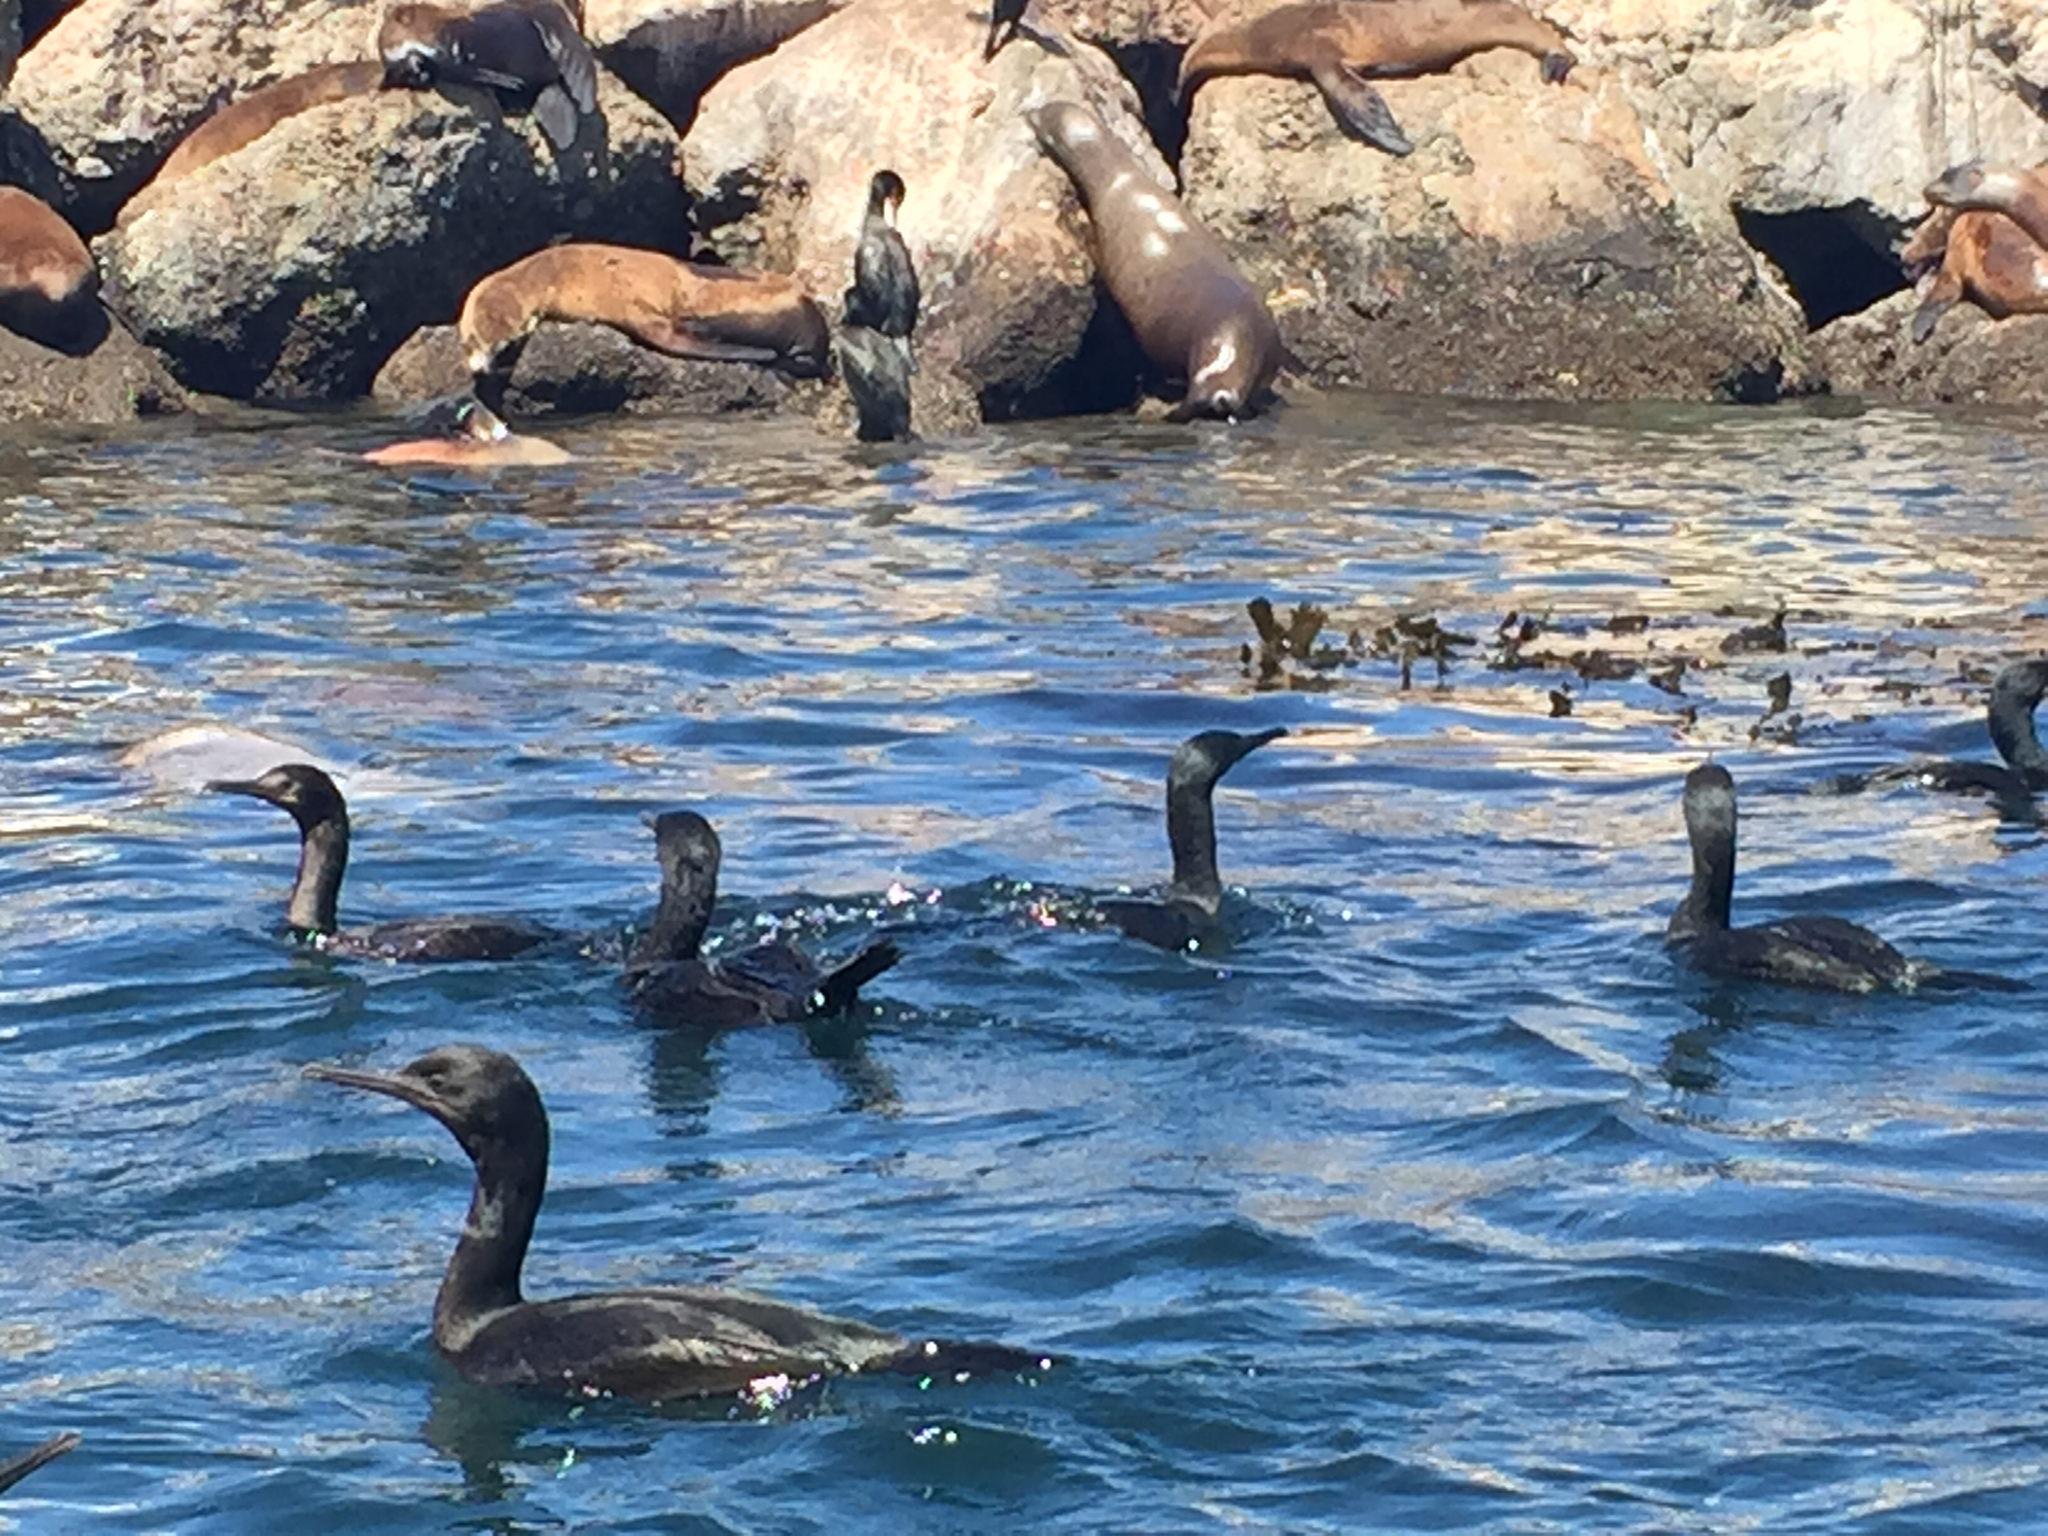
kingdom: Animalia
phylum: Chordata
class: Aves
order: Suliformes
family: Phalacrocoracidae
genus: Urile
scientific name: Urile penicillatus
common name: Brandt's cormorant
